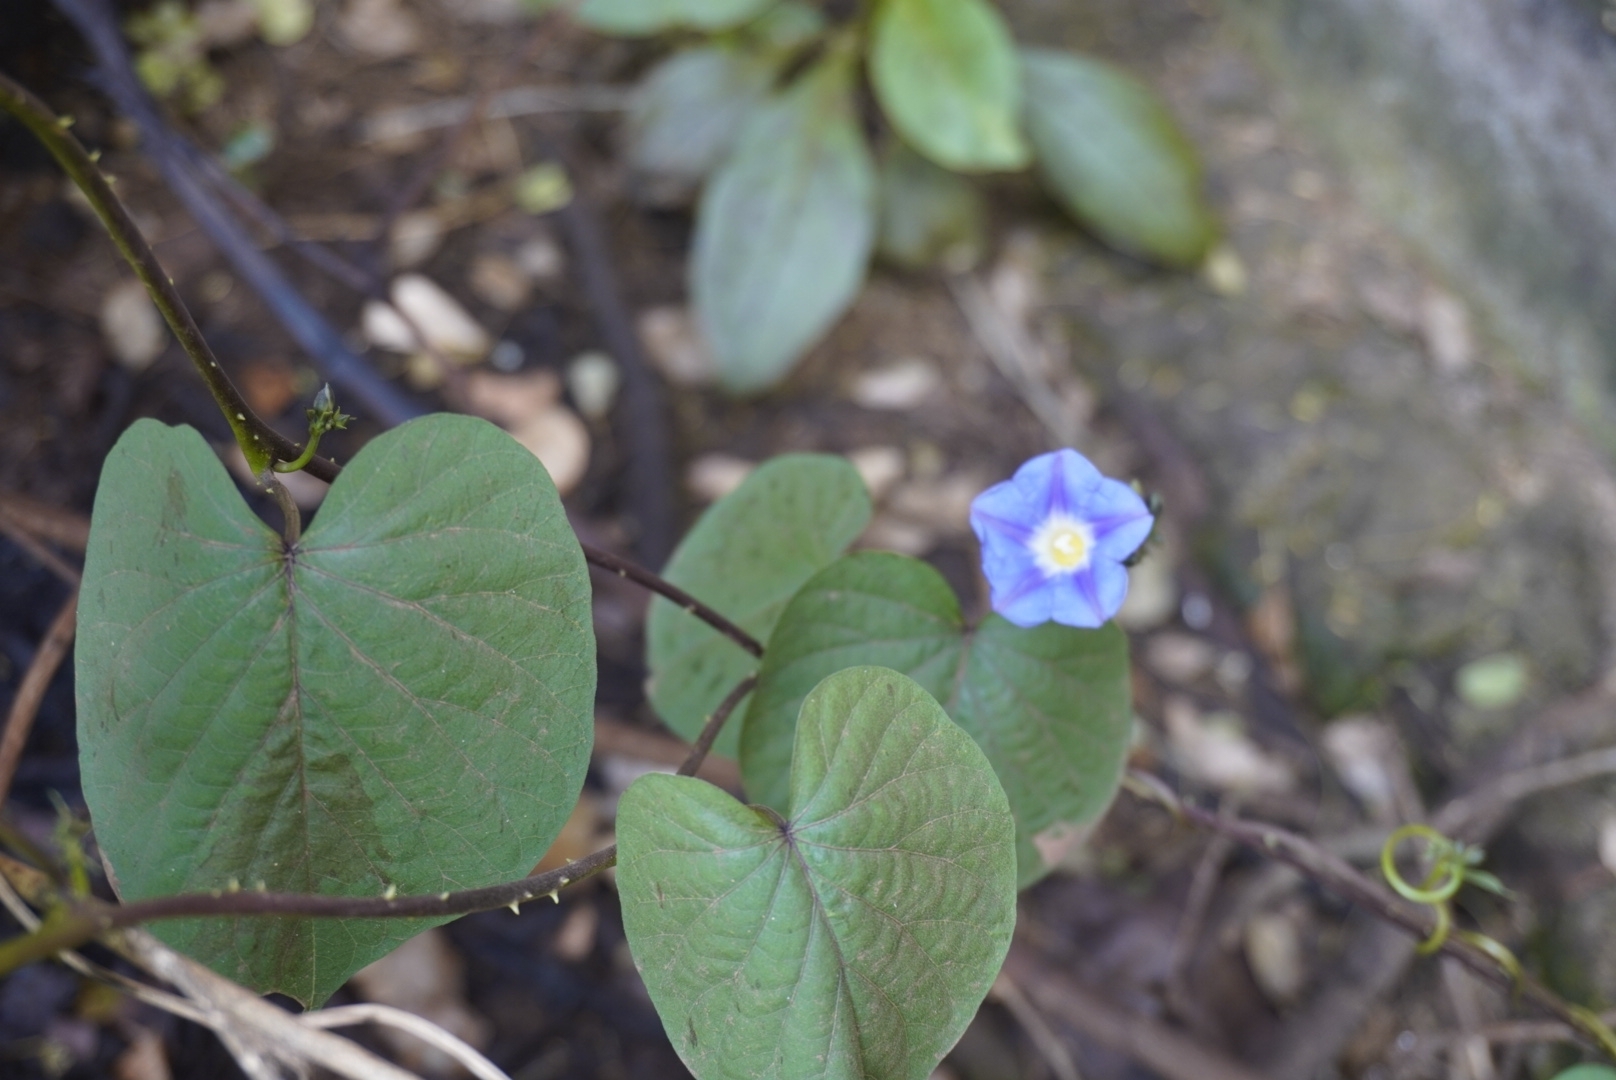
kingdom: Plantae
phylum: Tracheophyta
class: Magnoliopsida
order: Solanales
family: Convolvulaceae
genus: Ipomoea
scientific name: Ipomoea parasitica
